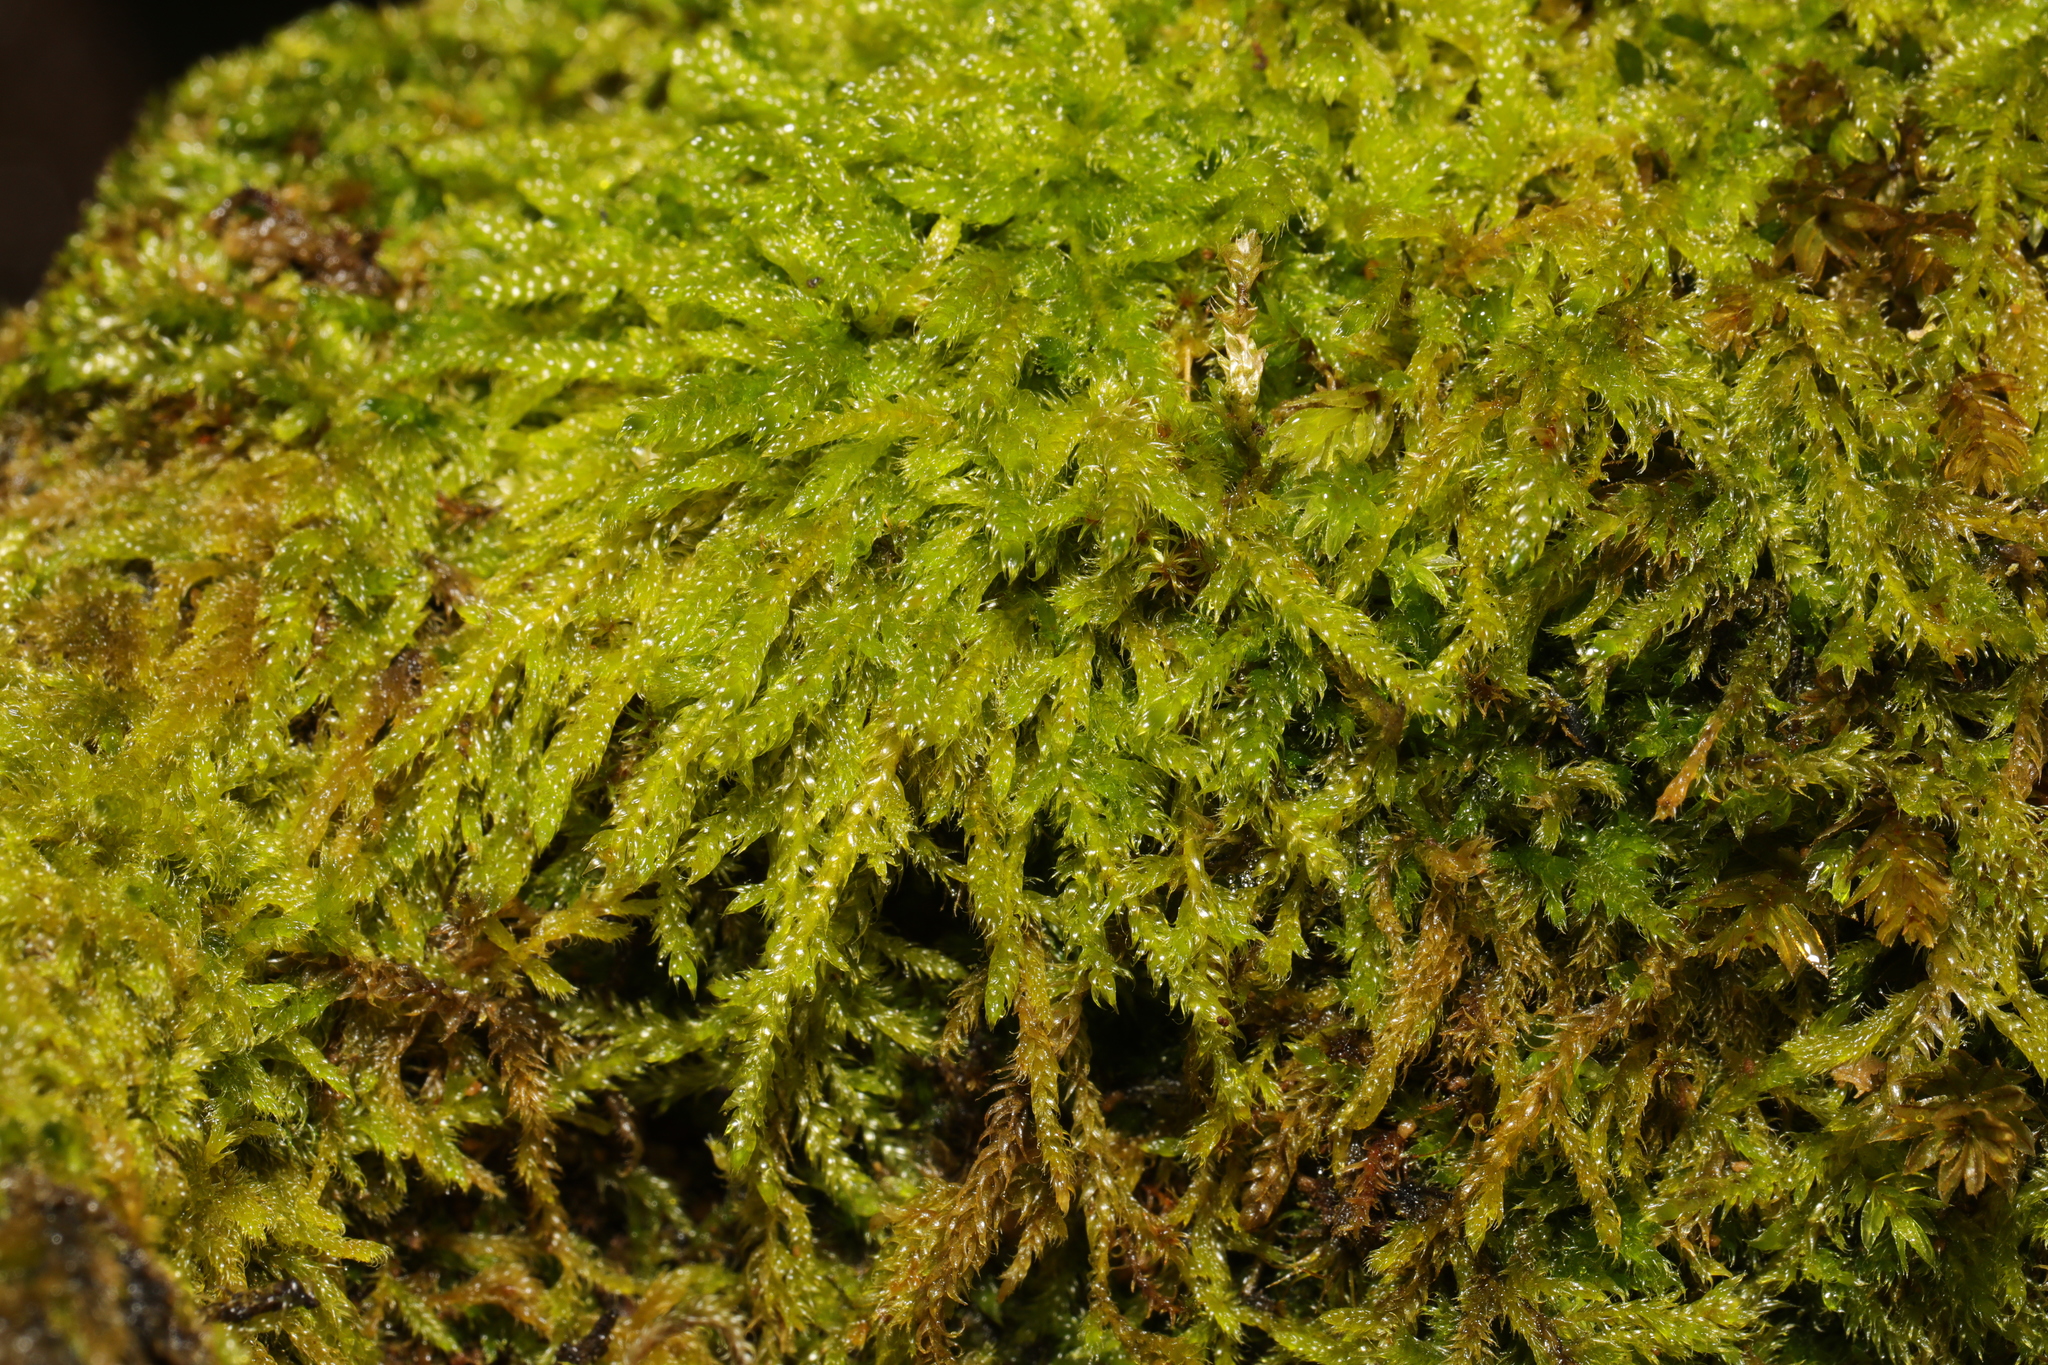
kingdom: Plantae
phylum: Bryophyta
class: Bryopsida
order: Hypnales
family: Hypnaceae
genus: Hypnum
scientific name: Hypnum cupressiforme
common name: Cypress-leaved plait-moss
